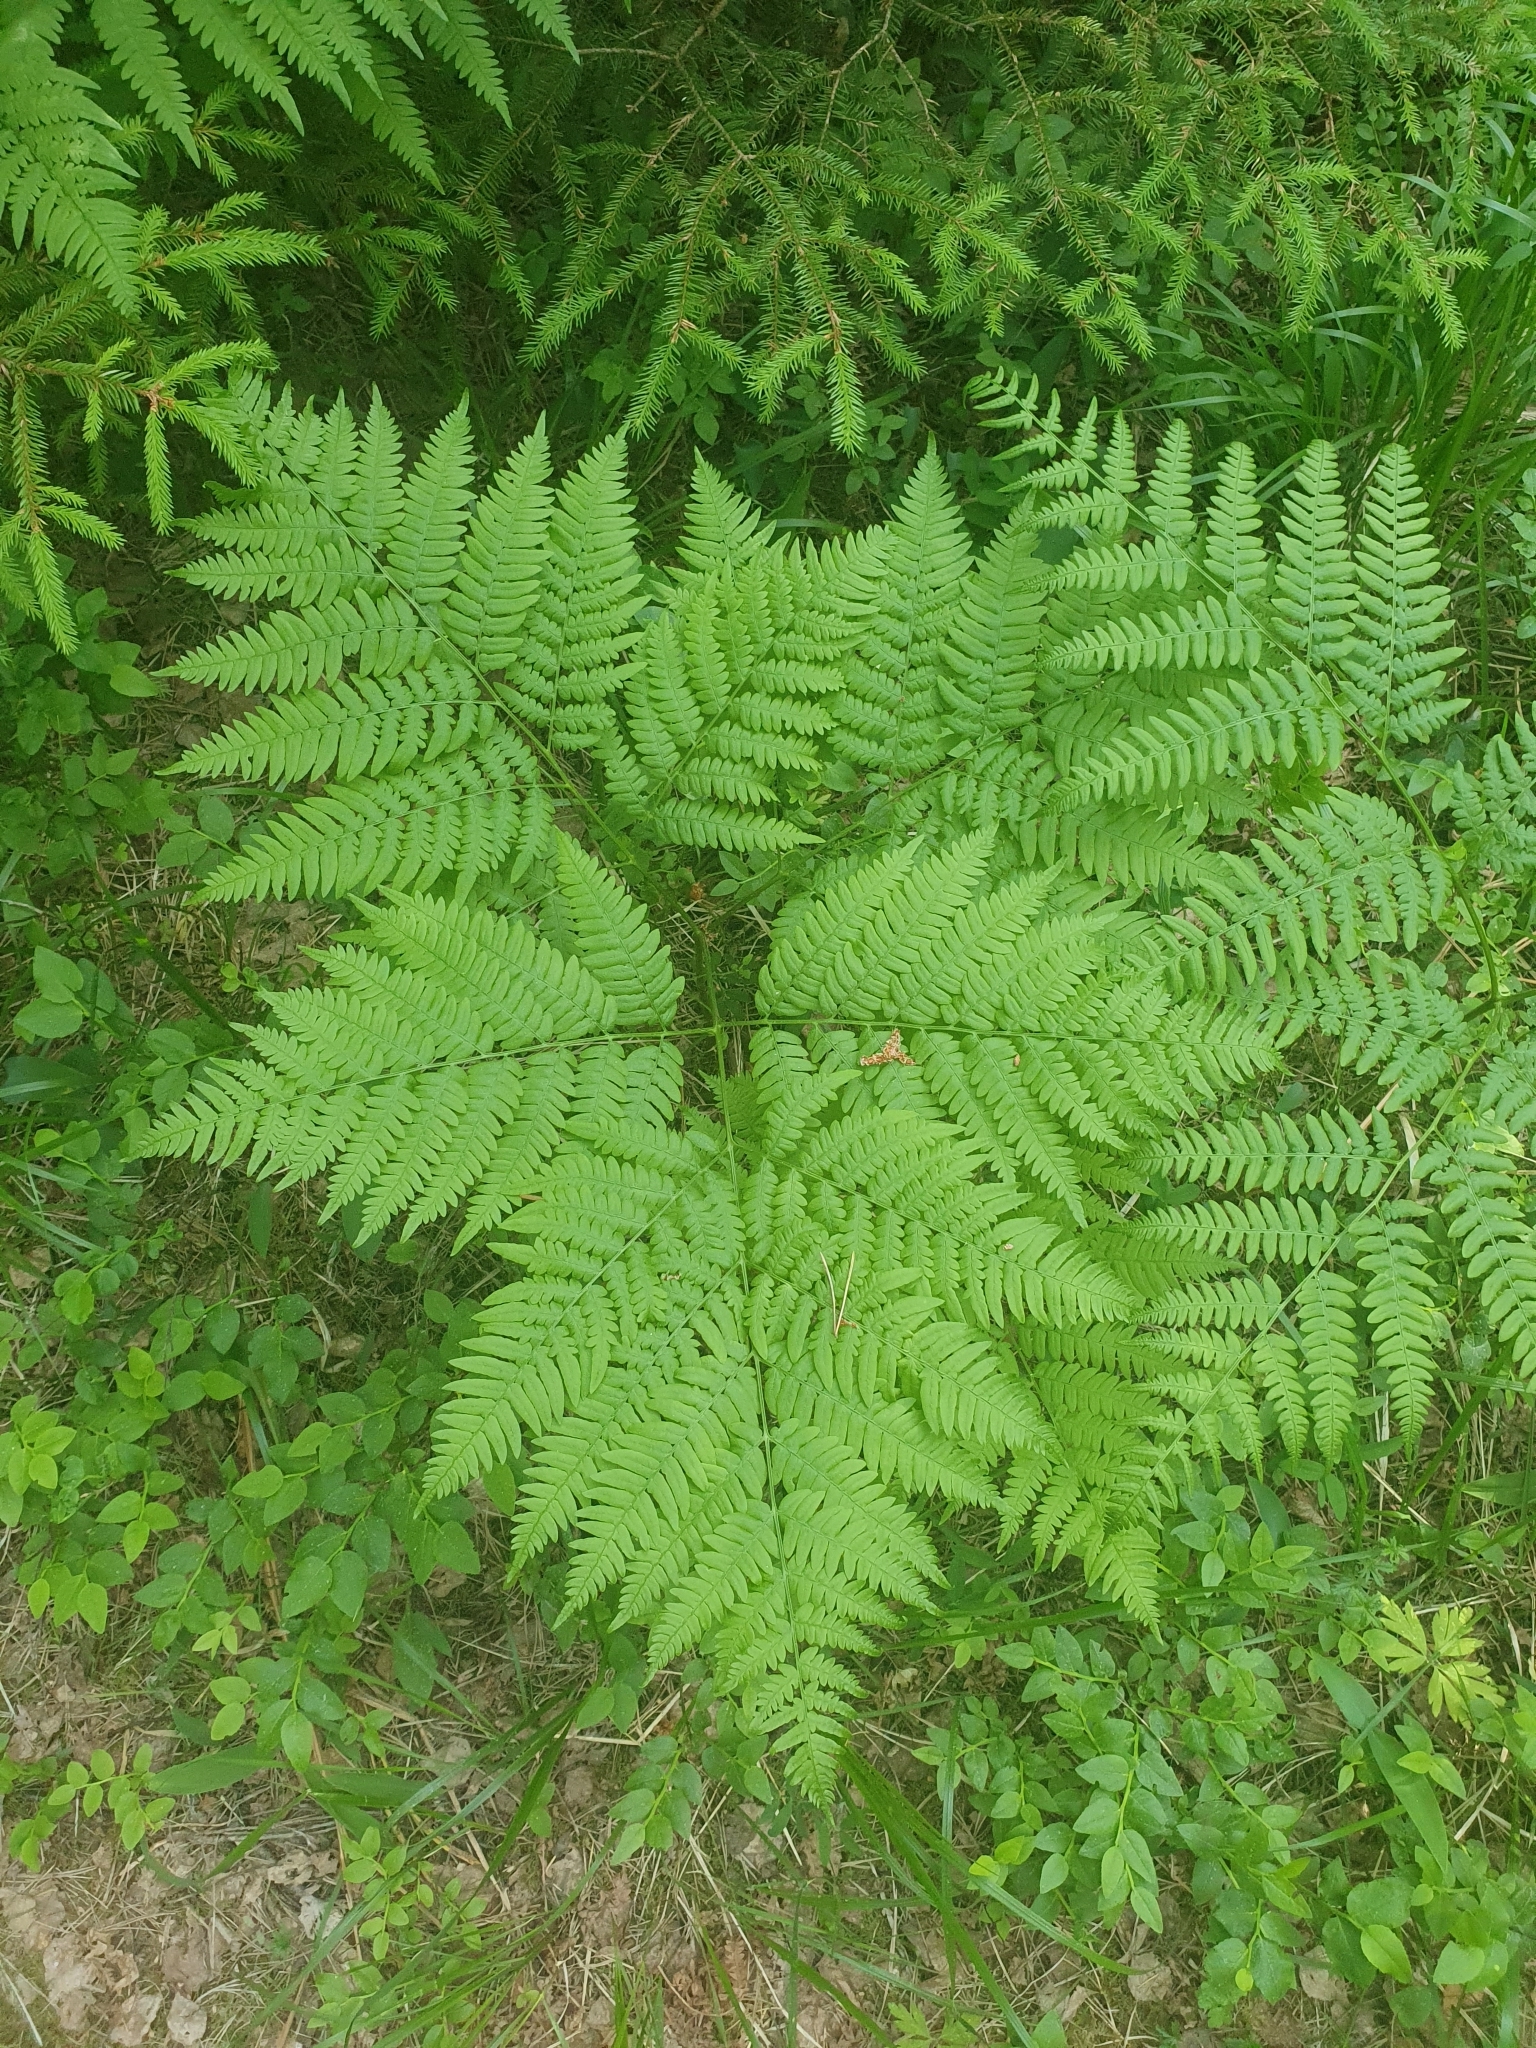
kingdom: Plantae
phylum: Tracheophyta
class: Polypodiopsida
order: Polypodiales
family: Dennstaedtiaceae
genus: Pteridium
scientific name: Pteridium aquilinum
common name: Bracken
